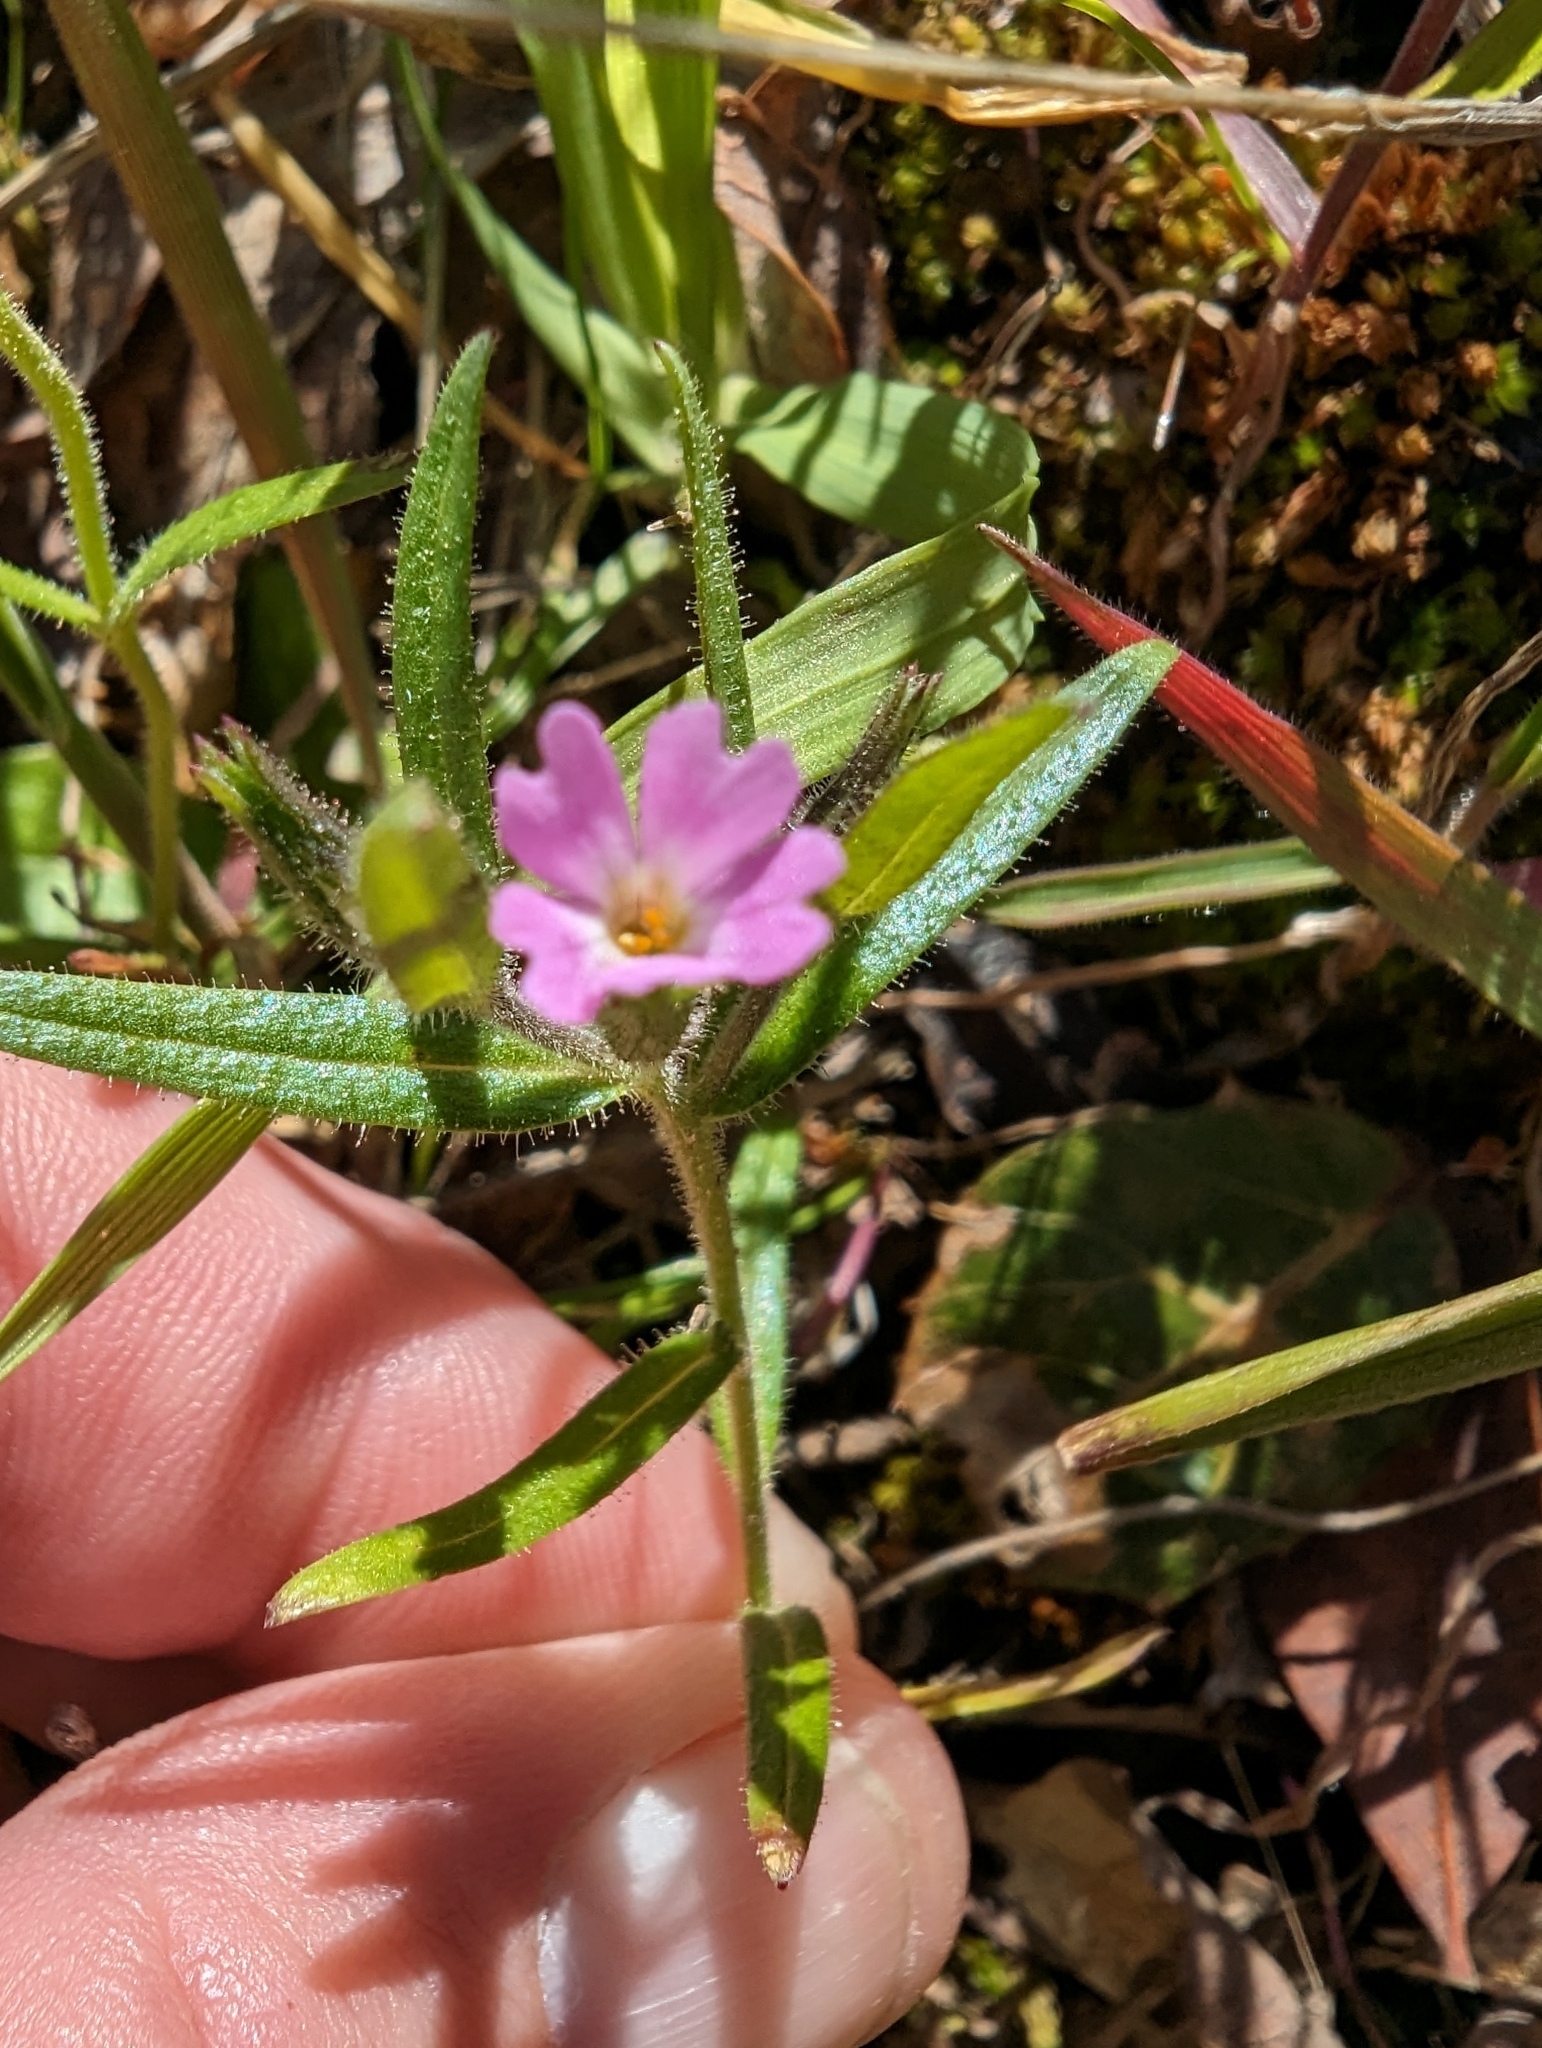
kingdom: Plantae
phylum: Tracheophyta
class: Magnoliopsida
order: Ericales
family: Polemoniaceae
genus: Phlox
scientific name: Phlox gracilis
